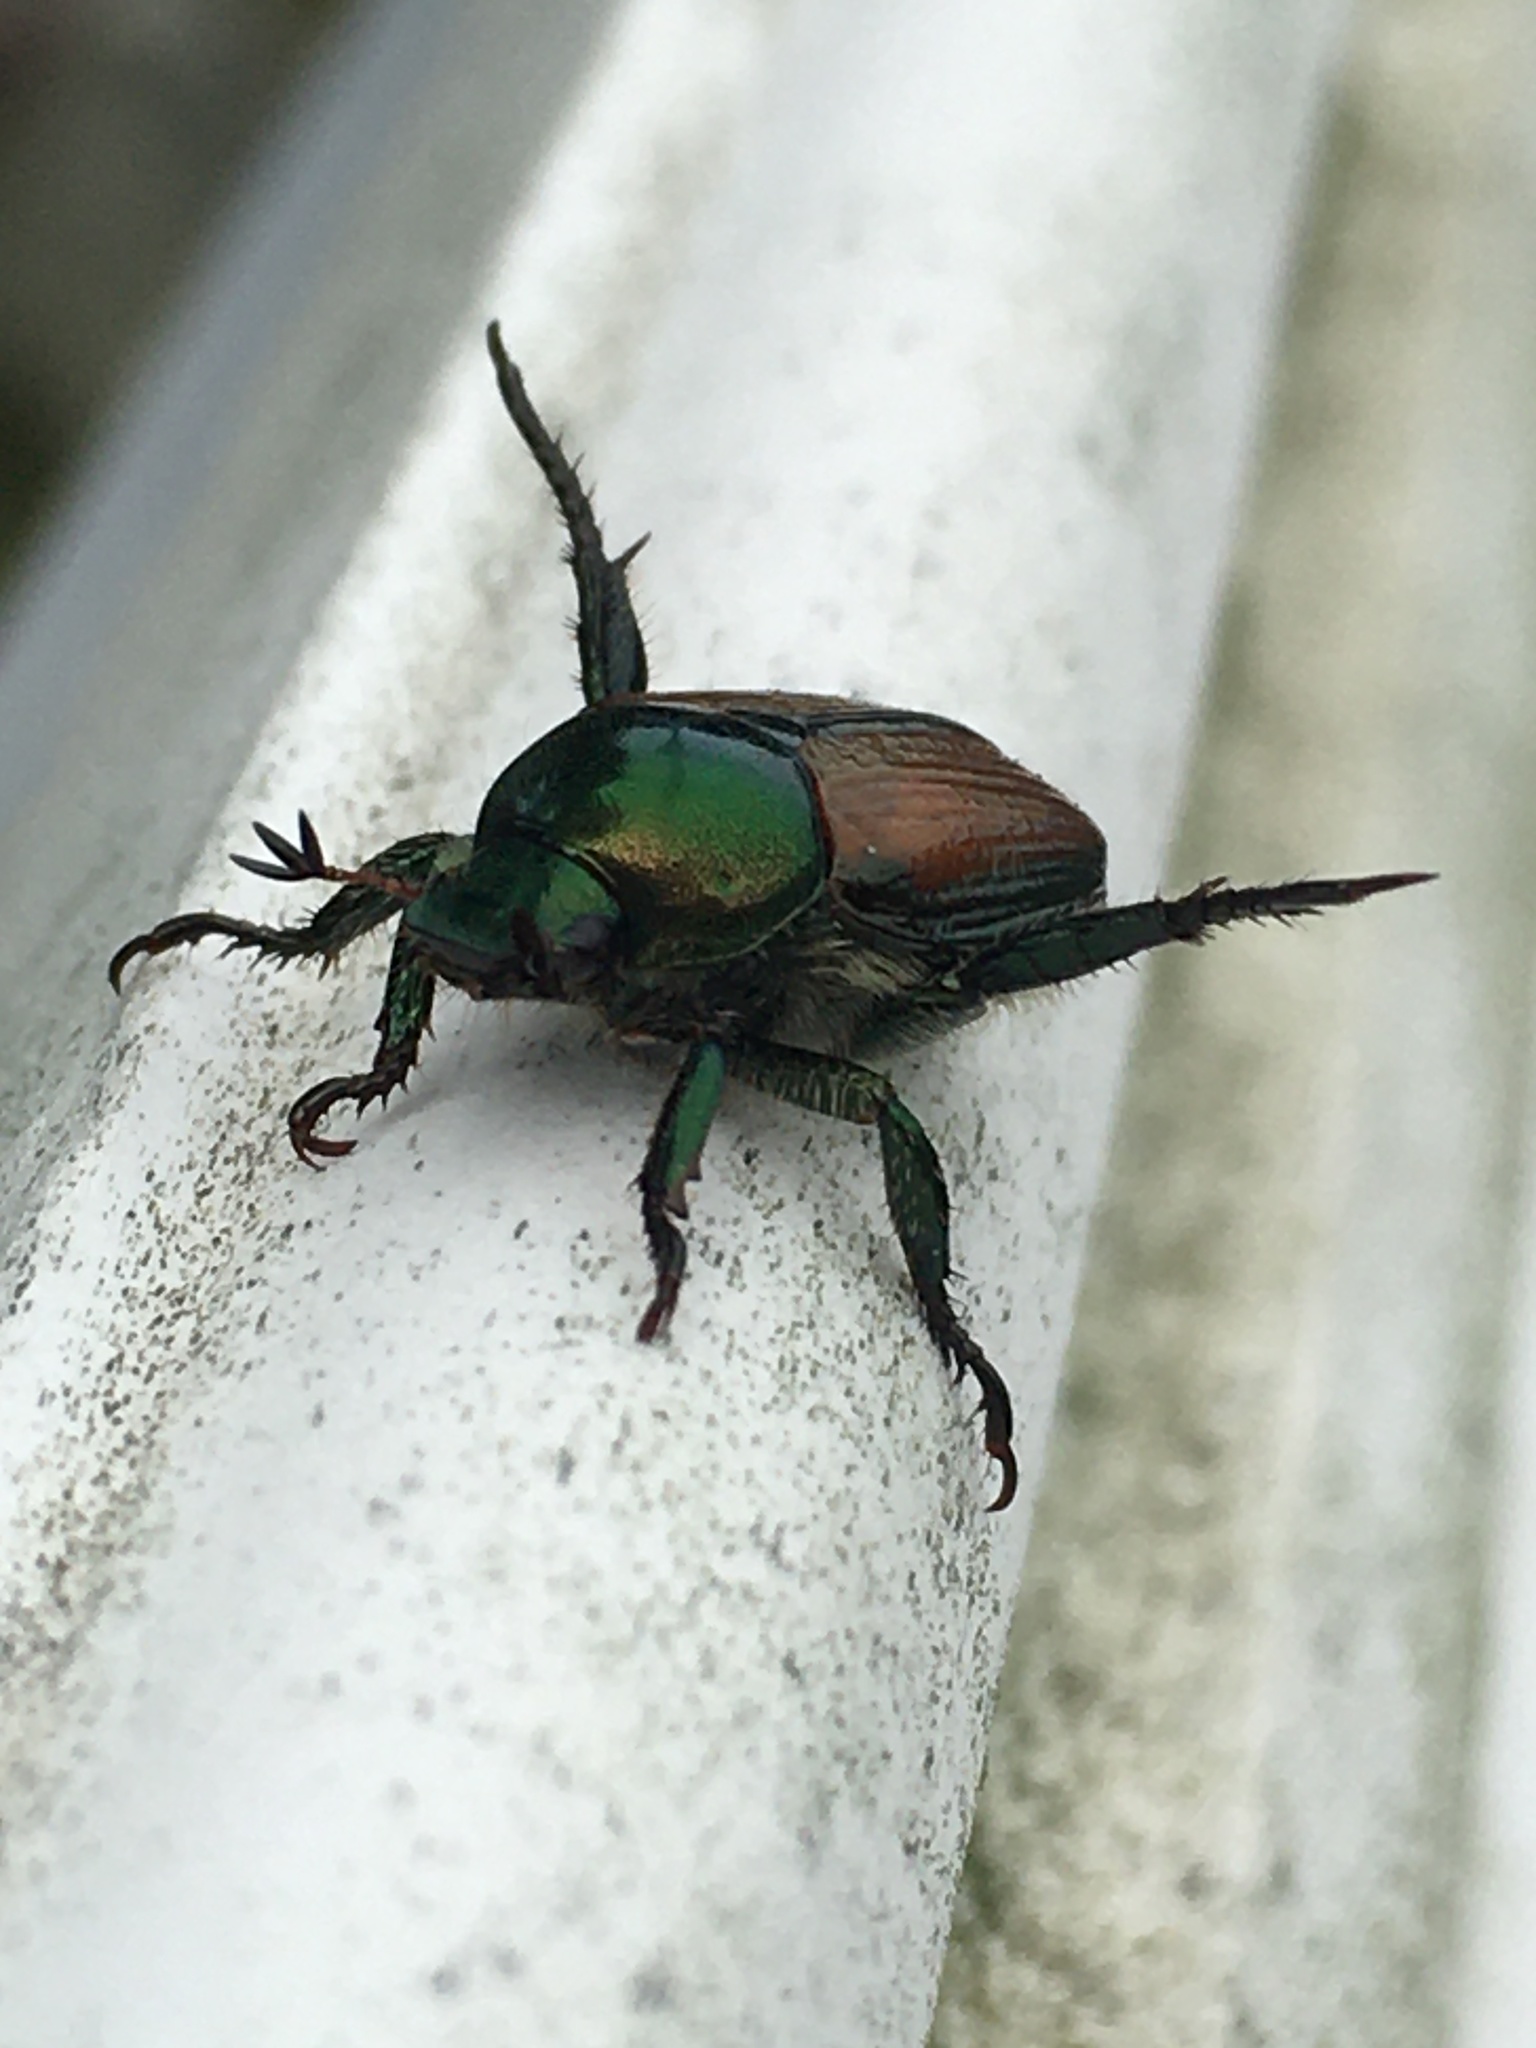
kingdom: Animalia
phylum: Arthropoda
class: Insecta
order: Coleoptera
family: Scarabaeidae
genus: Popillia
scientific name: Popillia japonica
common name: Japanese beetle
